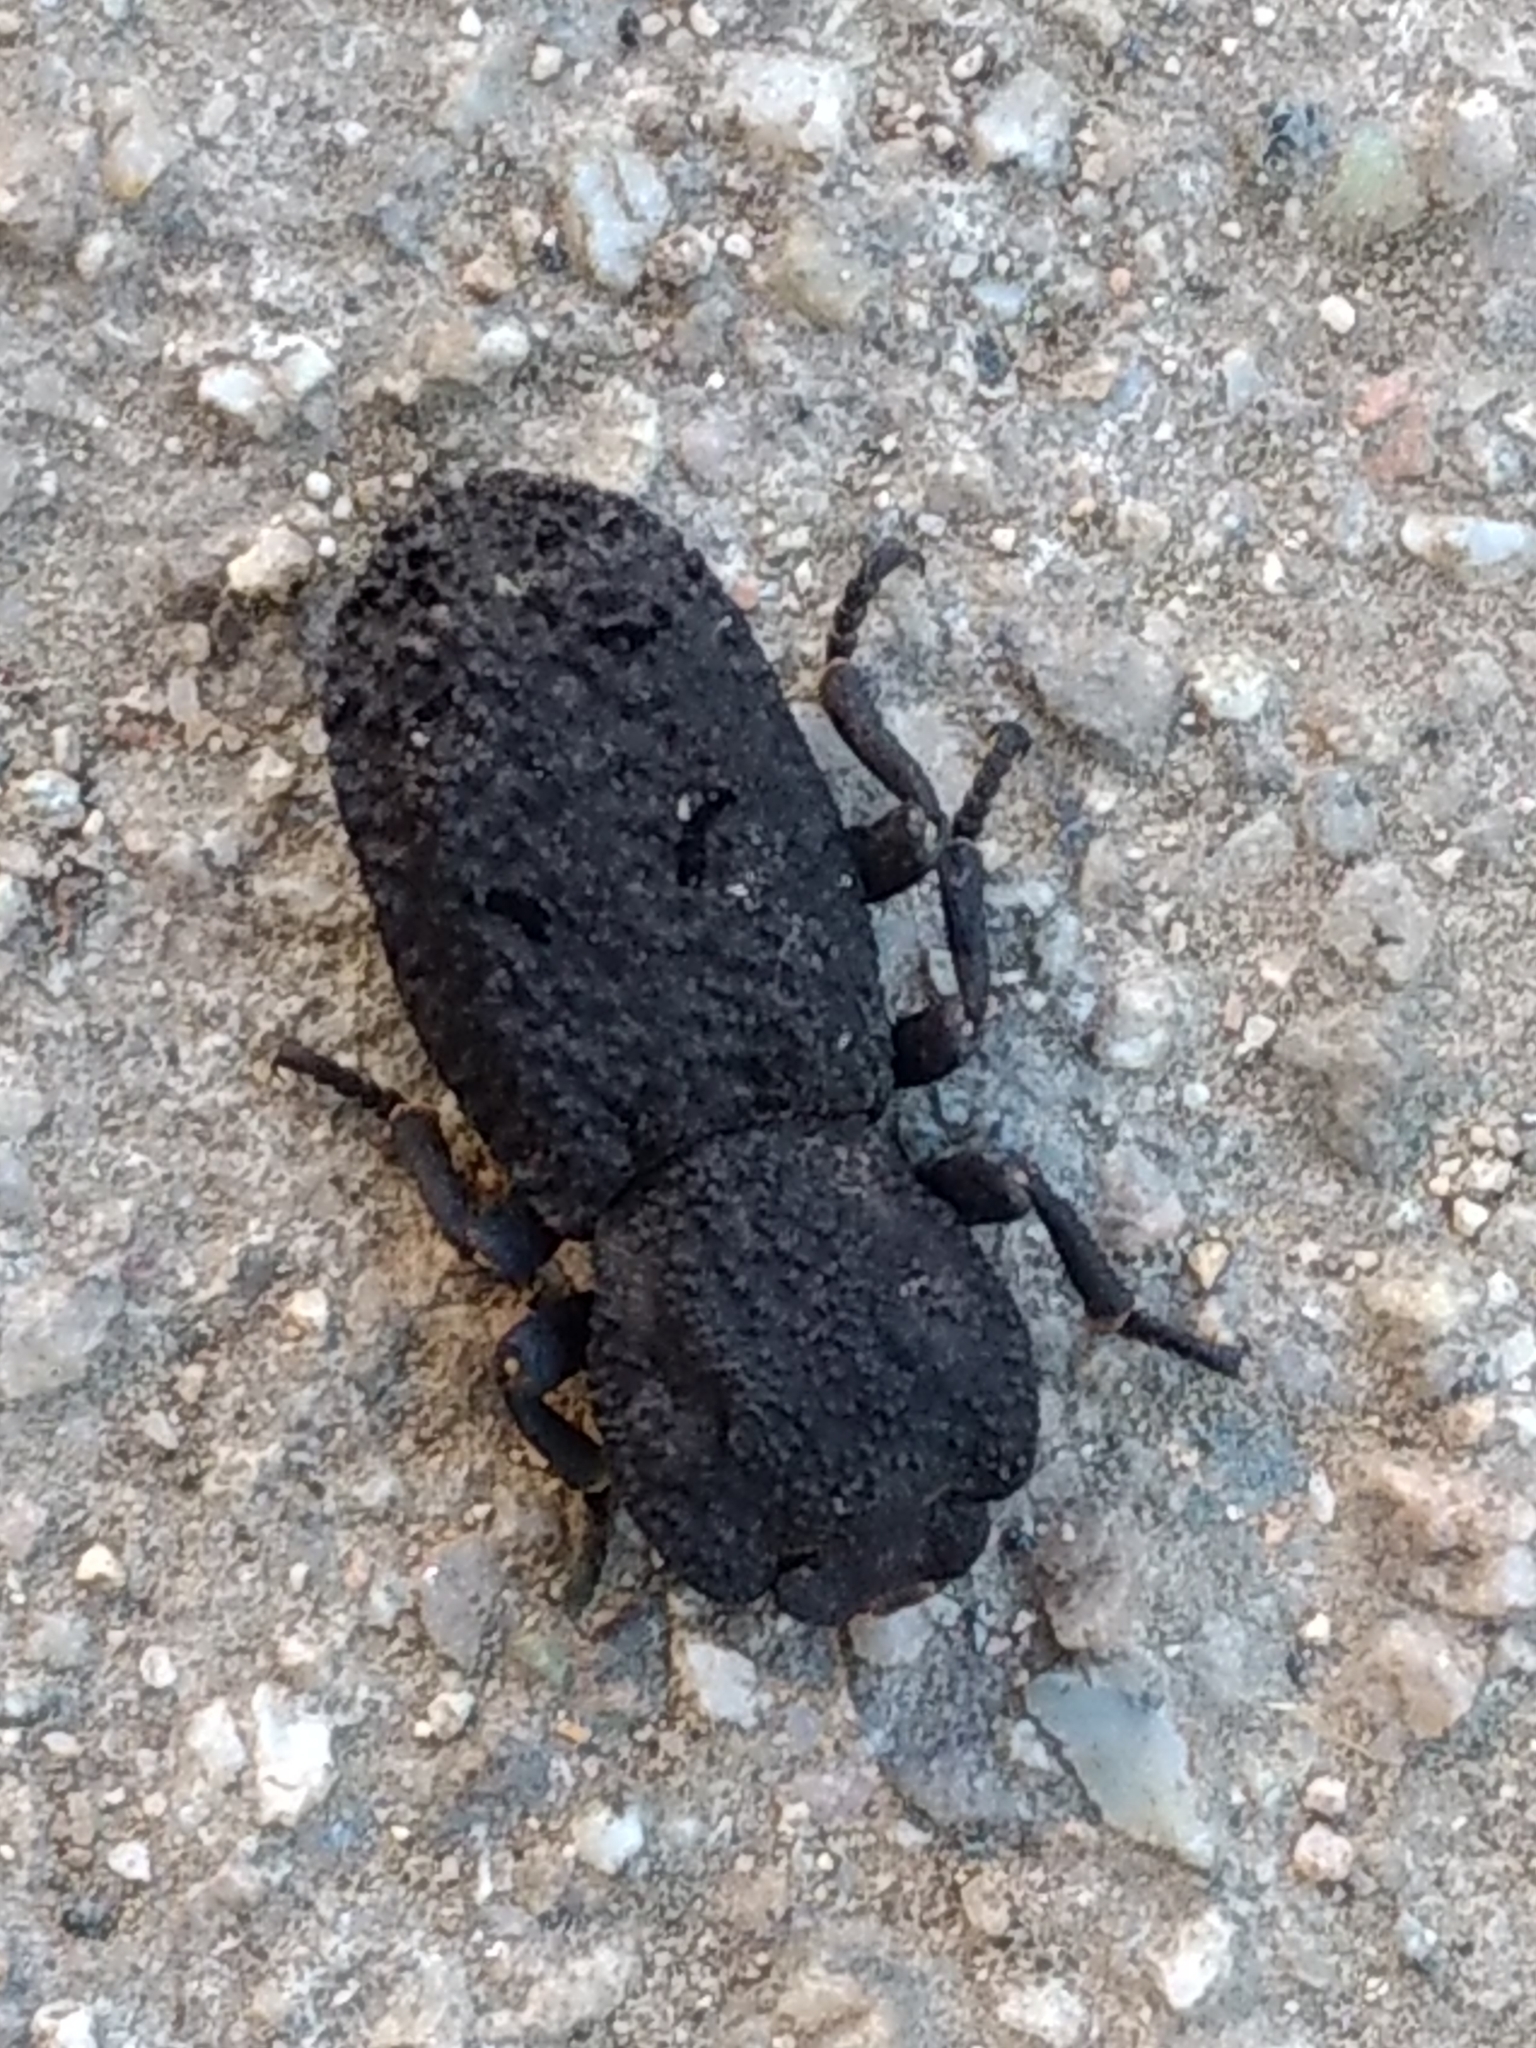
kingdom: Animalia
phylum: Arthropoda
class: Insecta
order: Coleoptera
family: Zopheridae
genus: Phloeodes
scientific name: Phloeodes diabolicus
